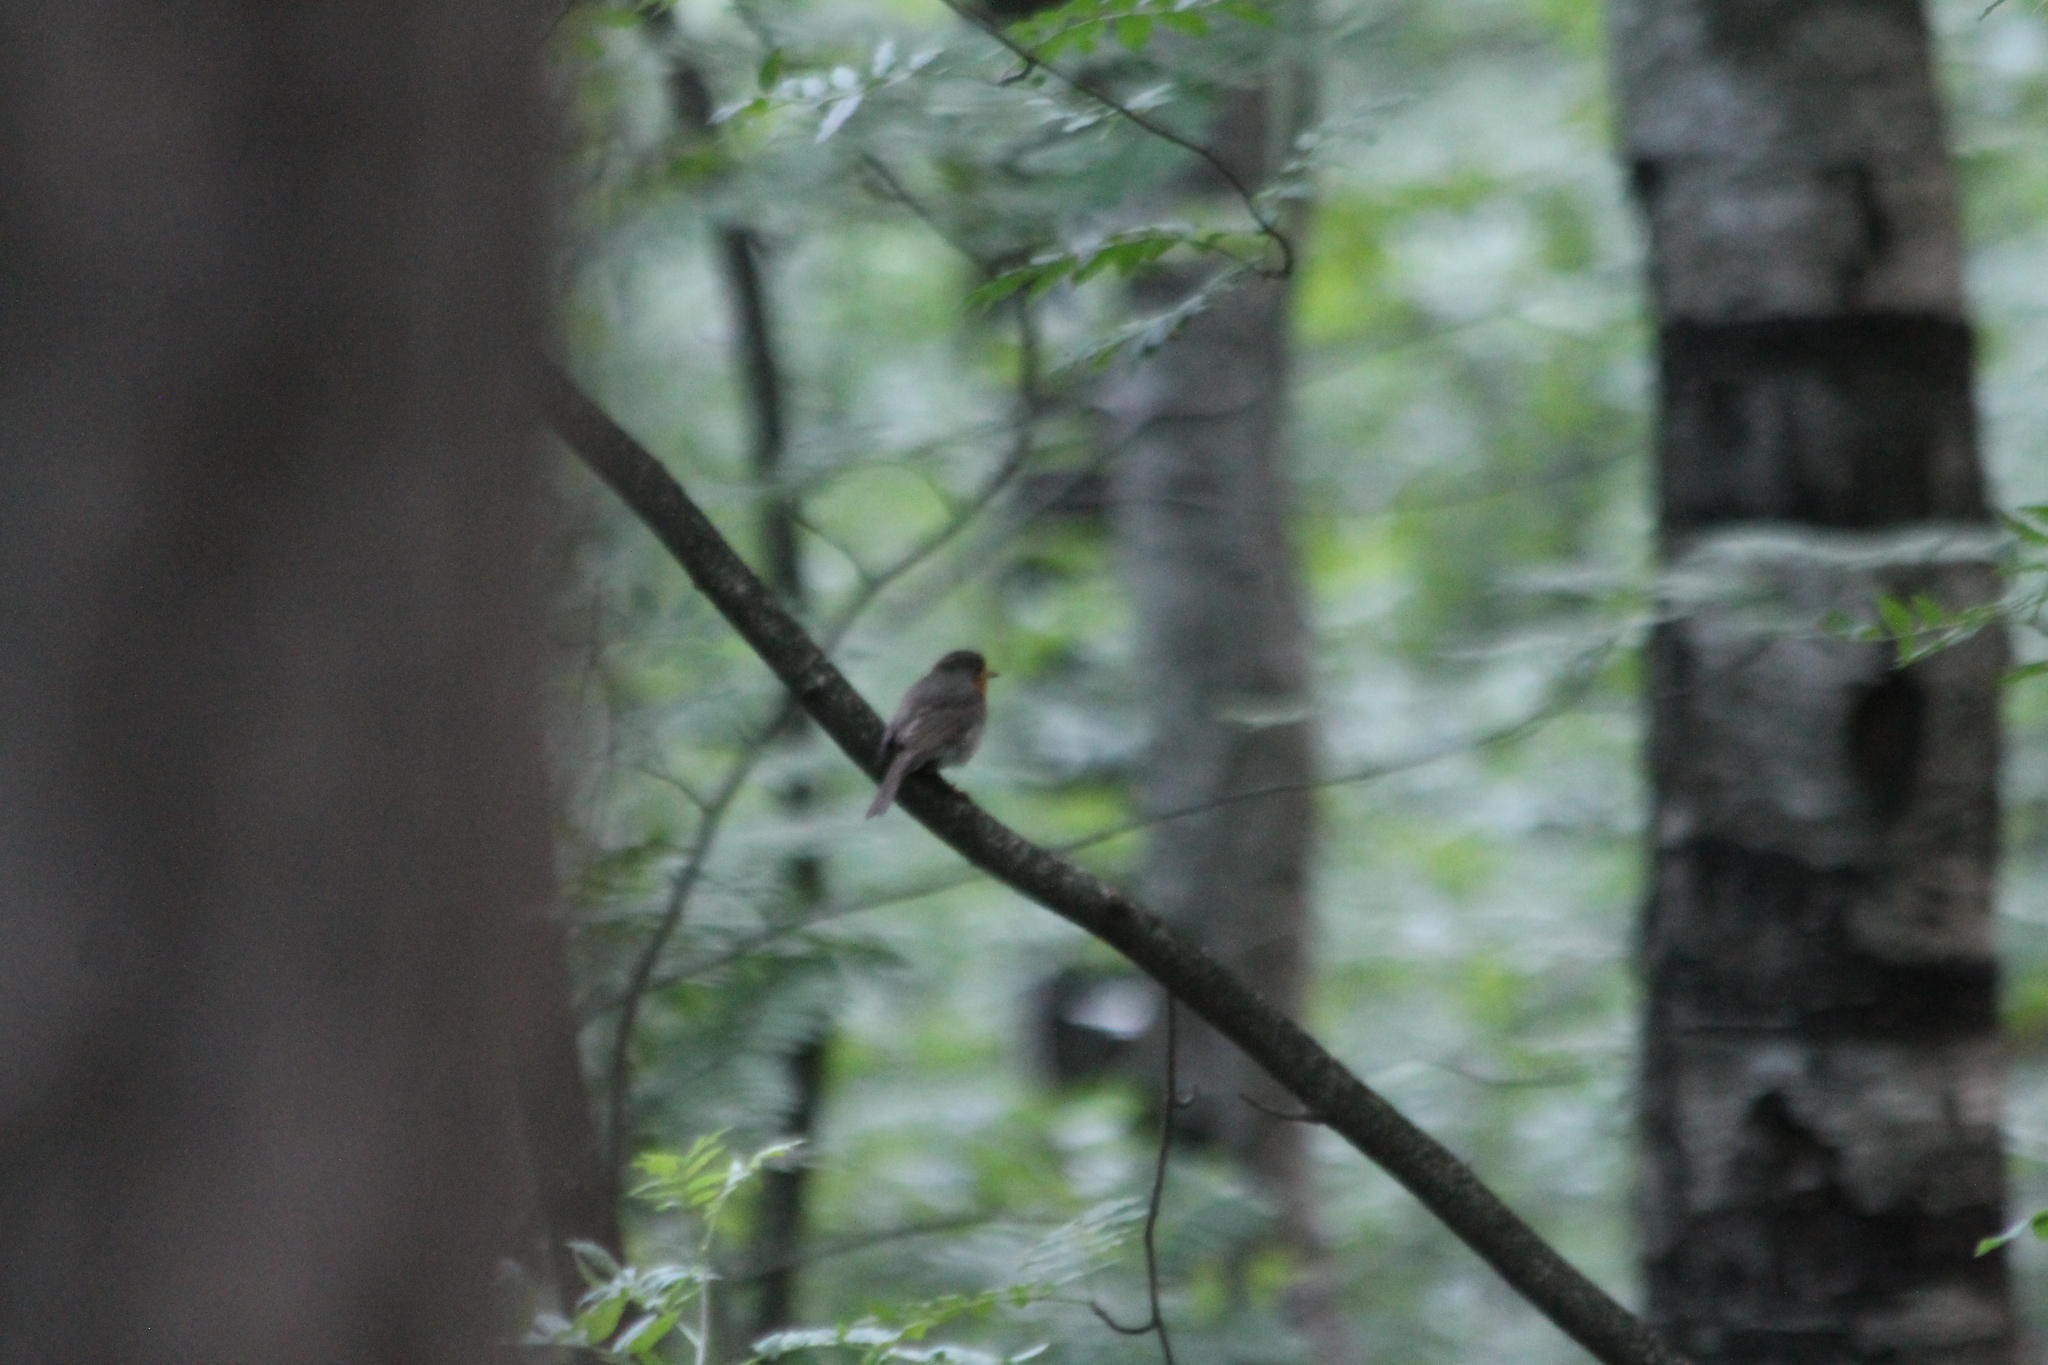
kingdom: Animalia
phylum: Chordata
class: Aves
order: Passeriformes
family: Muscicapidae
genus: Erithacus
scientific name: Erithacus rubecula
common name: European robin
